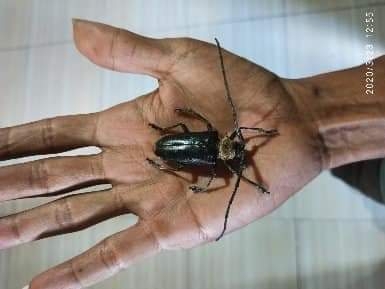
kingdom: Animalia
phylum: Arthropoda
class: Insecta
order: Coleoptera
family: Cerambycidae
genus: Nemophas
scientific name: Nemophas batoceroides
